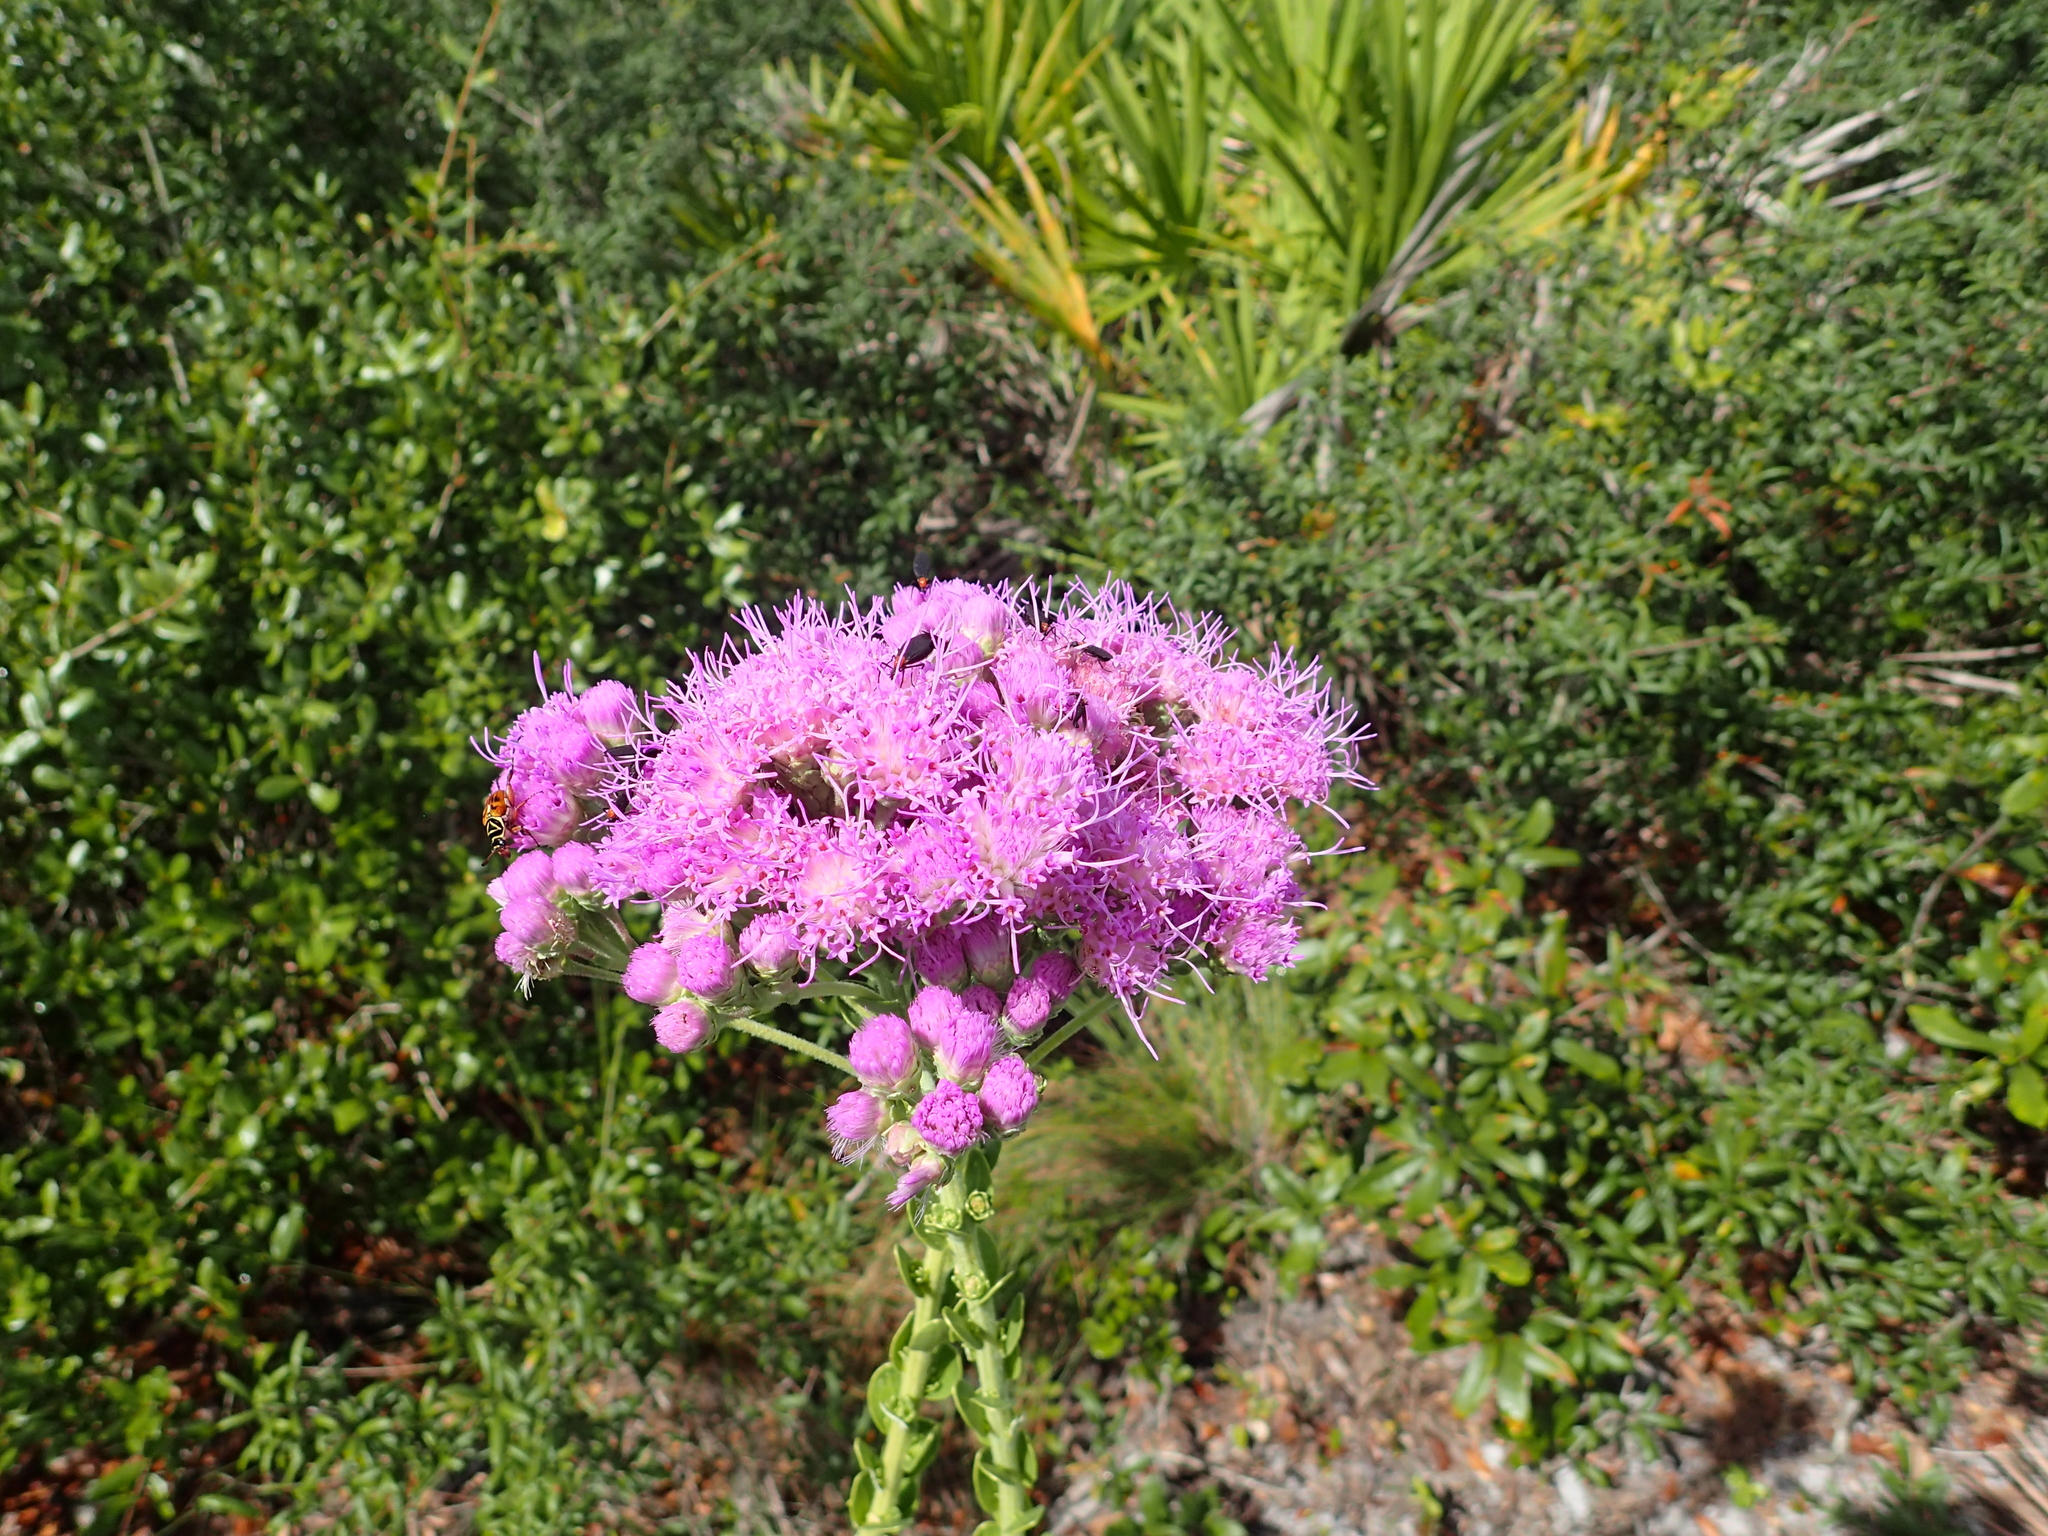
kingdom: Plantae
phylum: Tracheophyta
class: Magnoliopsida
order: Asterales
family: Asteraceae
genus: Carphephorus
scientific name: Carphephorus corymbosus
